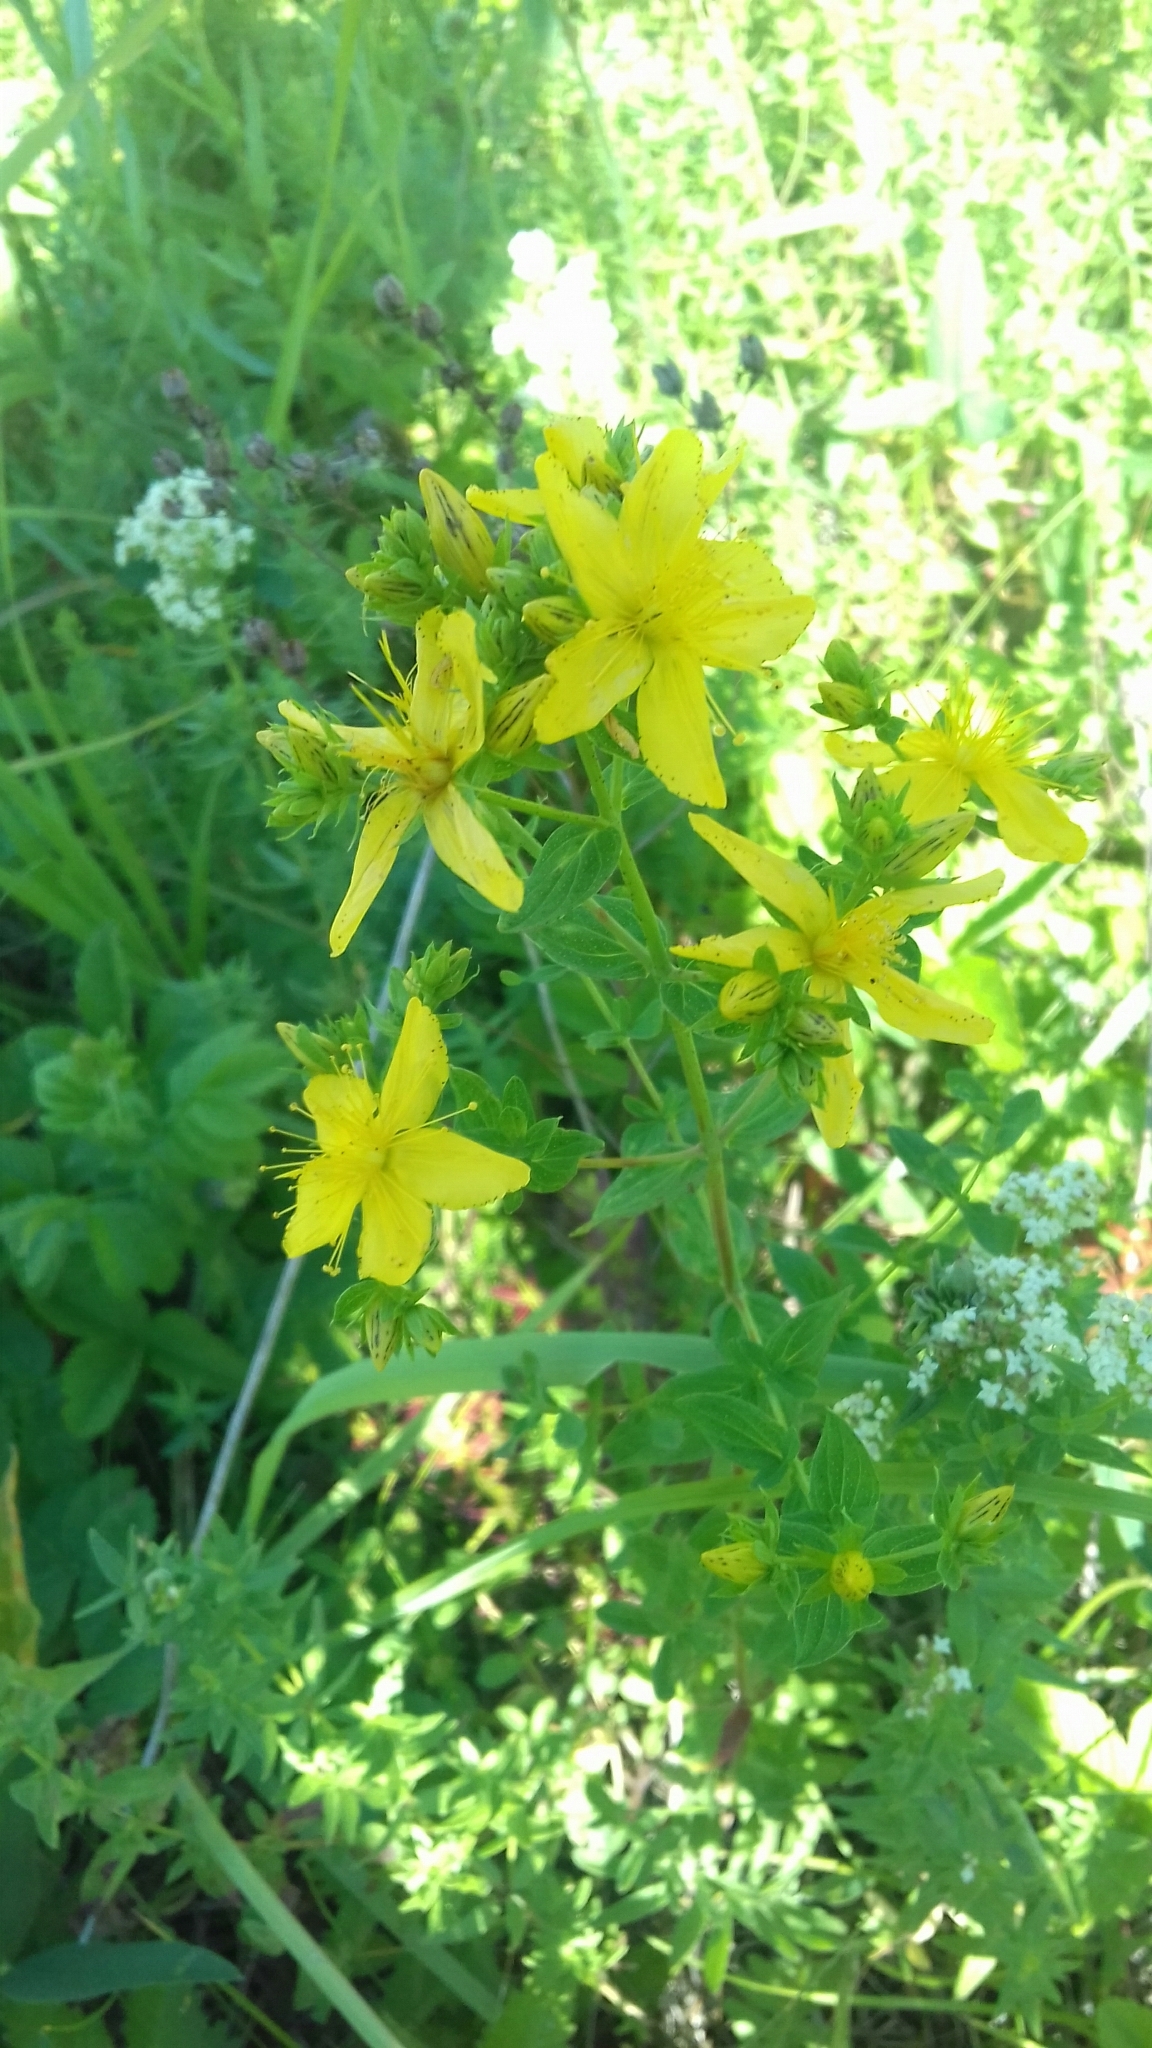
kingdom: Plantae
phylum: Tracheophyta
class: Magnoliopsida
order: Malpighiales
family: Hypericaceae
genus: Hypericum
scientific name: Hypericum perforatum
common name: Common st. johnswort
